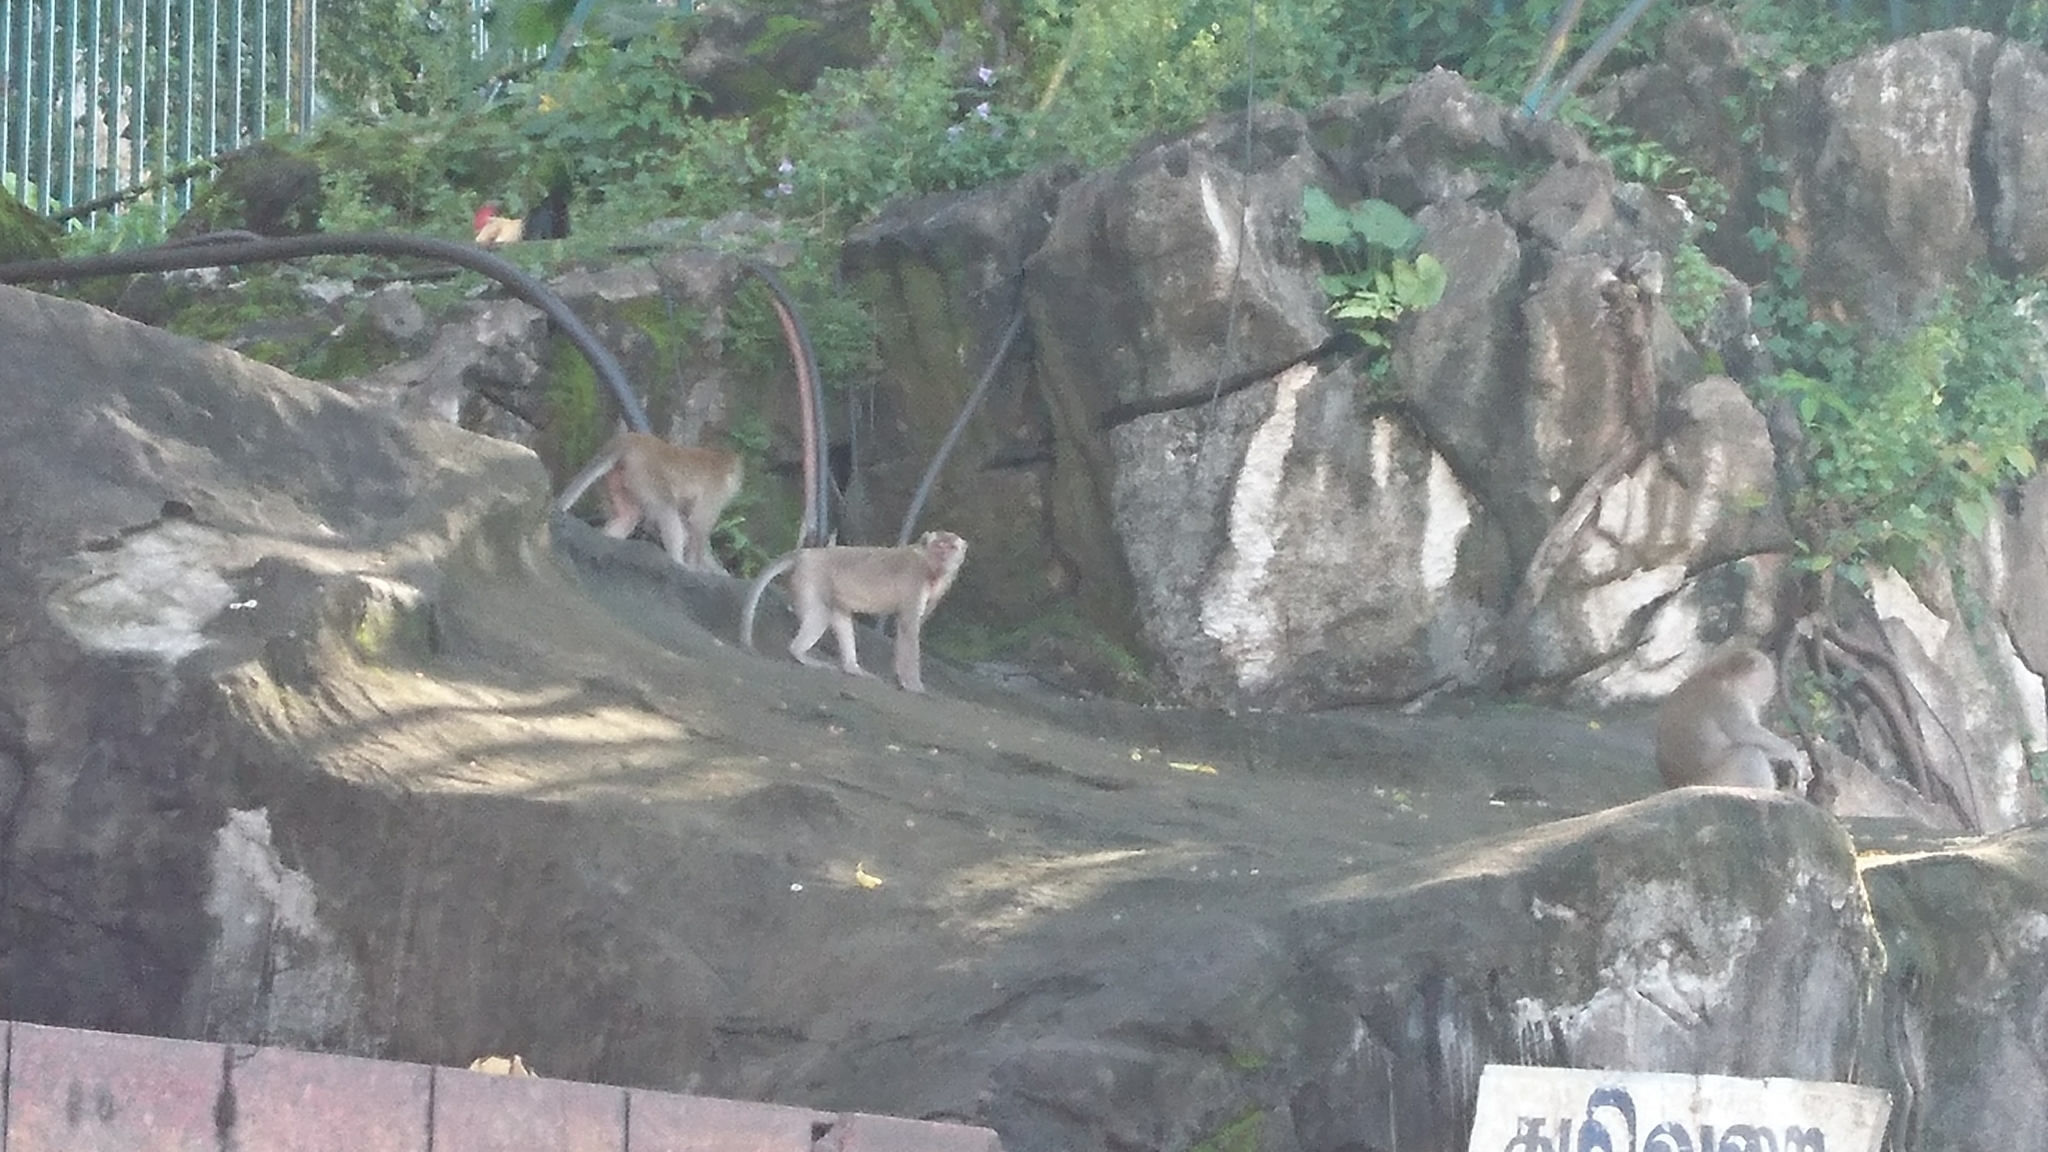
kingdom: Animalia
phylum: Chordata
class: Mammalia
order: Primates
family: Cercopithecidae
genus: Macaca
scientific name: Macaca fascicularis
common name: Crab-eating macaque
